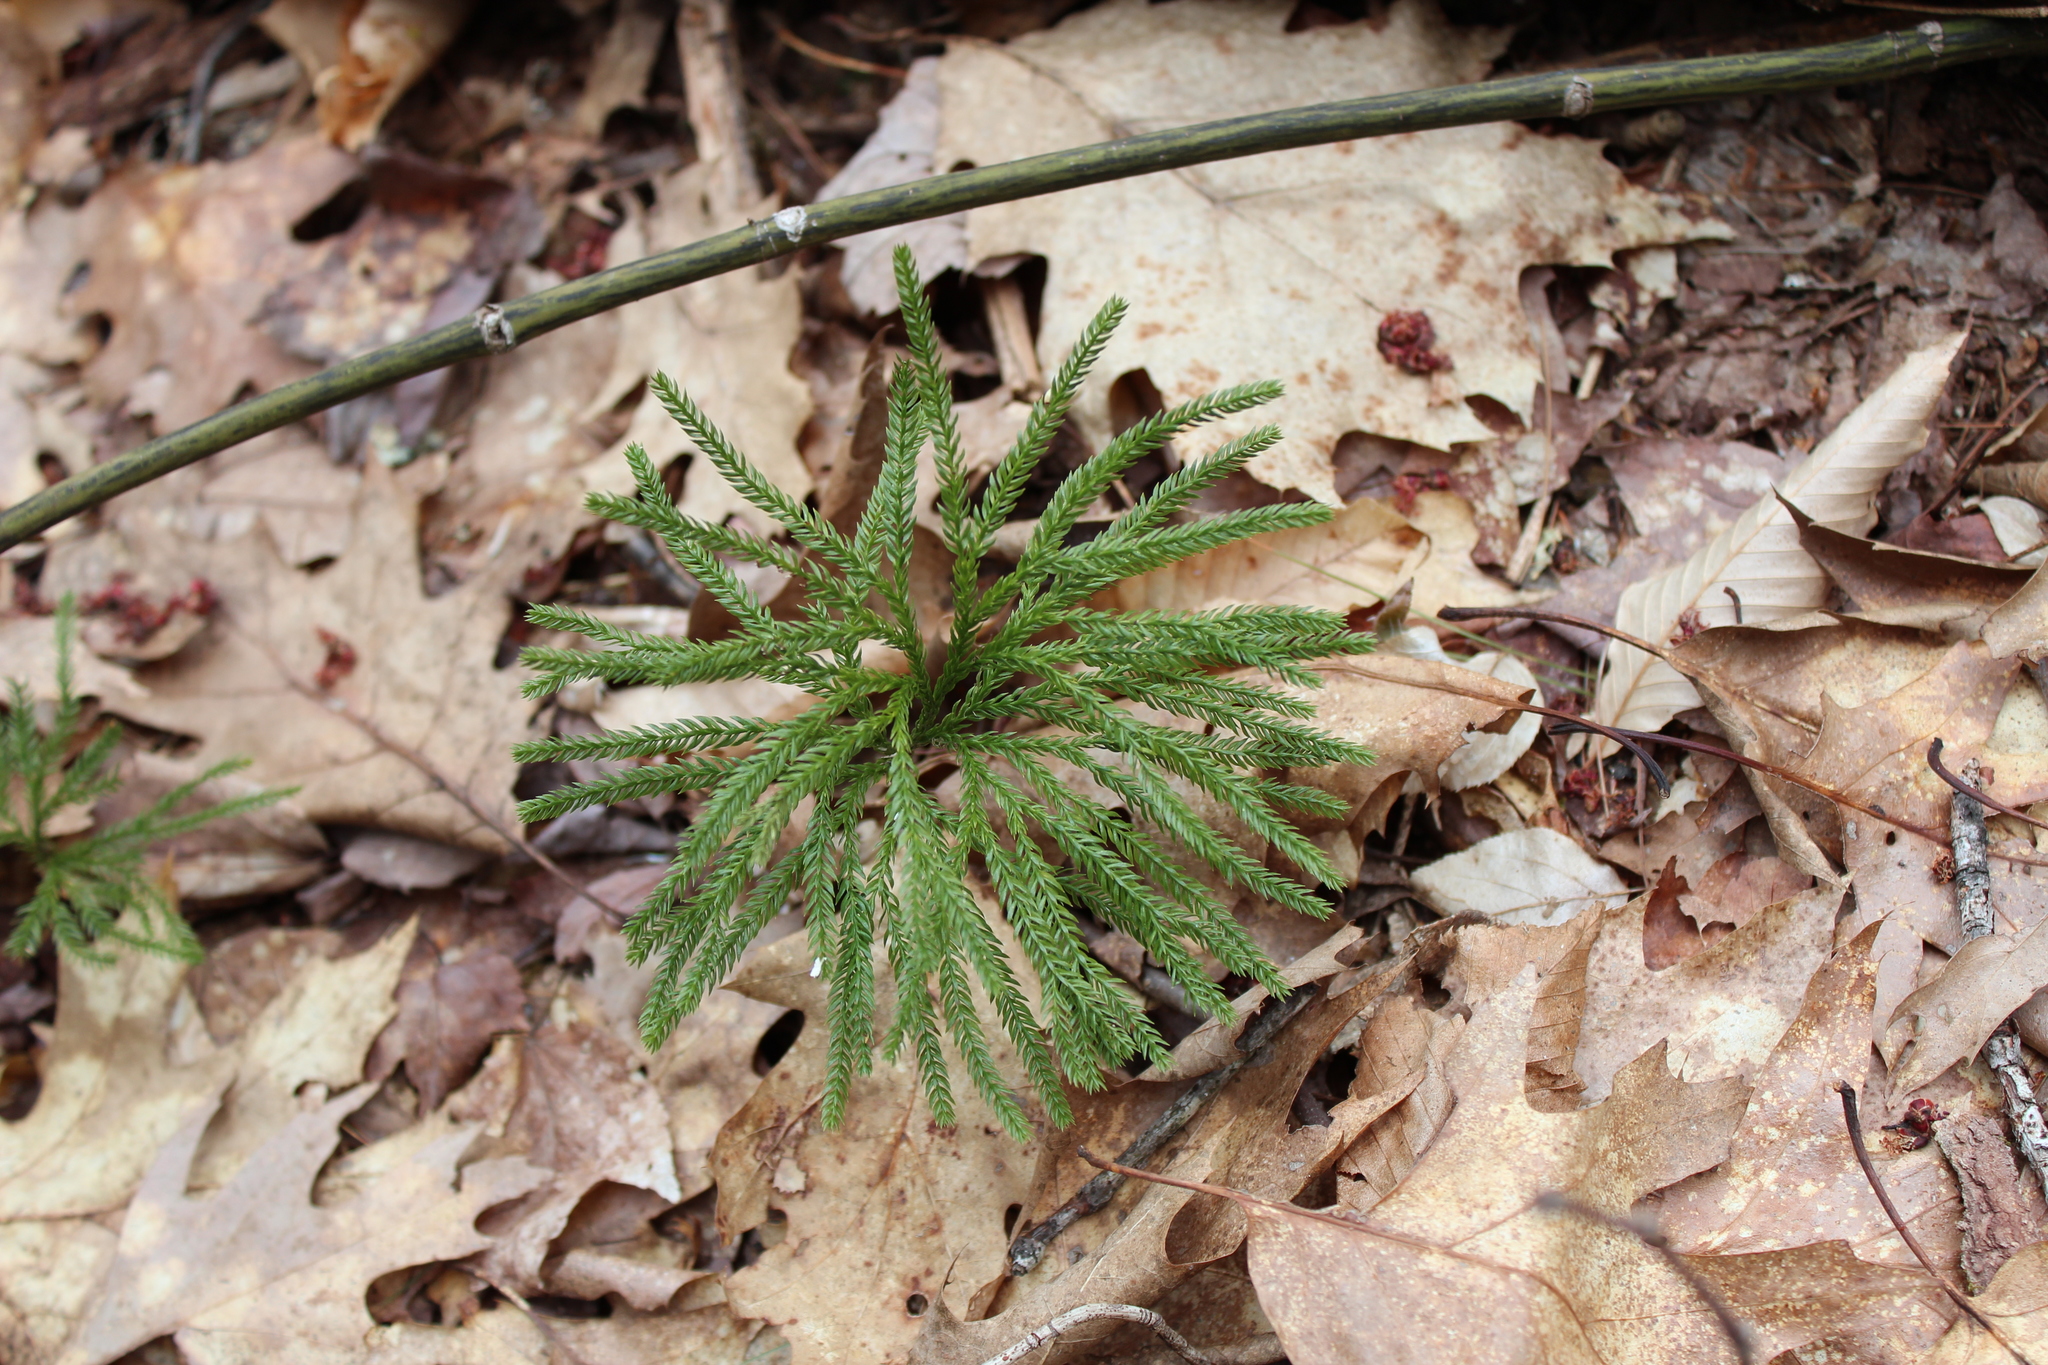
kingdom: Plantae
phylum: Tracheophyta
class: Lycopodiopsida
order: Lycopodiales
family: Lycopodiaceae
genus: Dendrolycopodium
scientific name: Dendrolycopodium obscurum
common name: Common ground-pine
